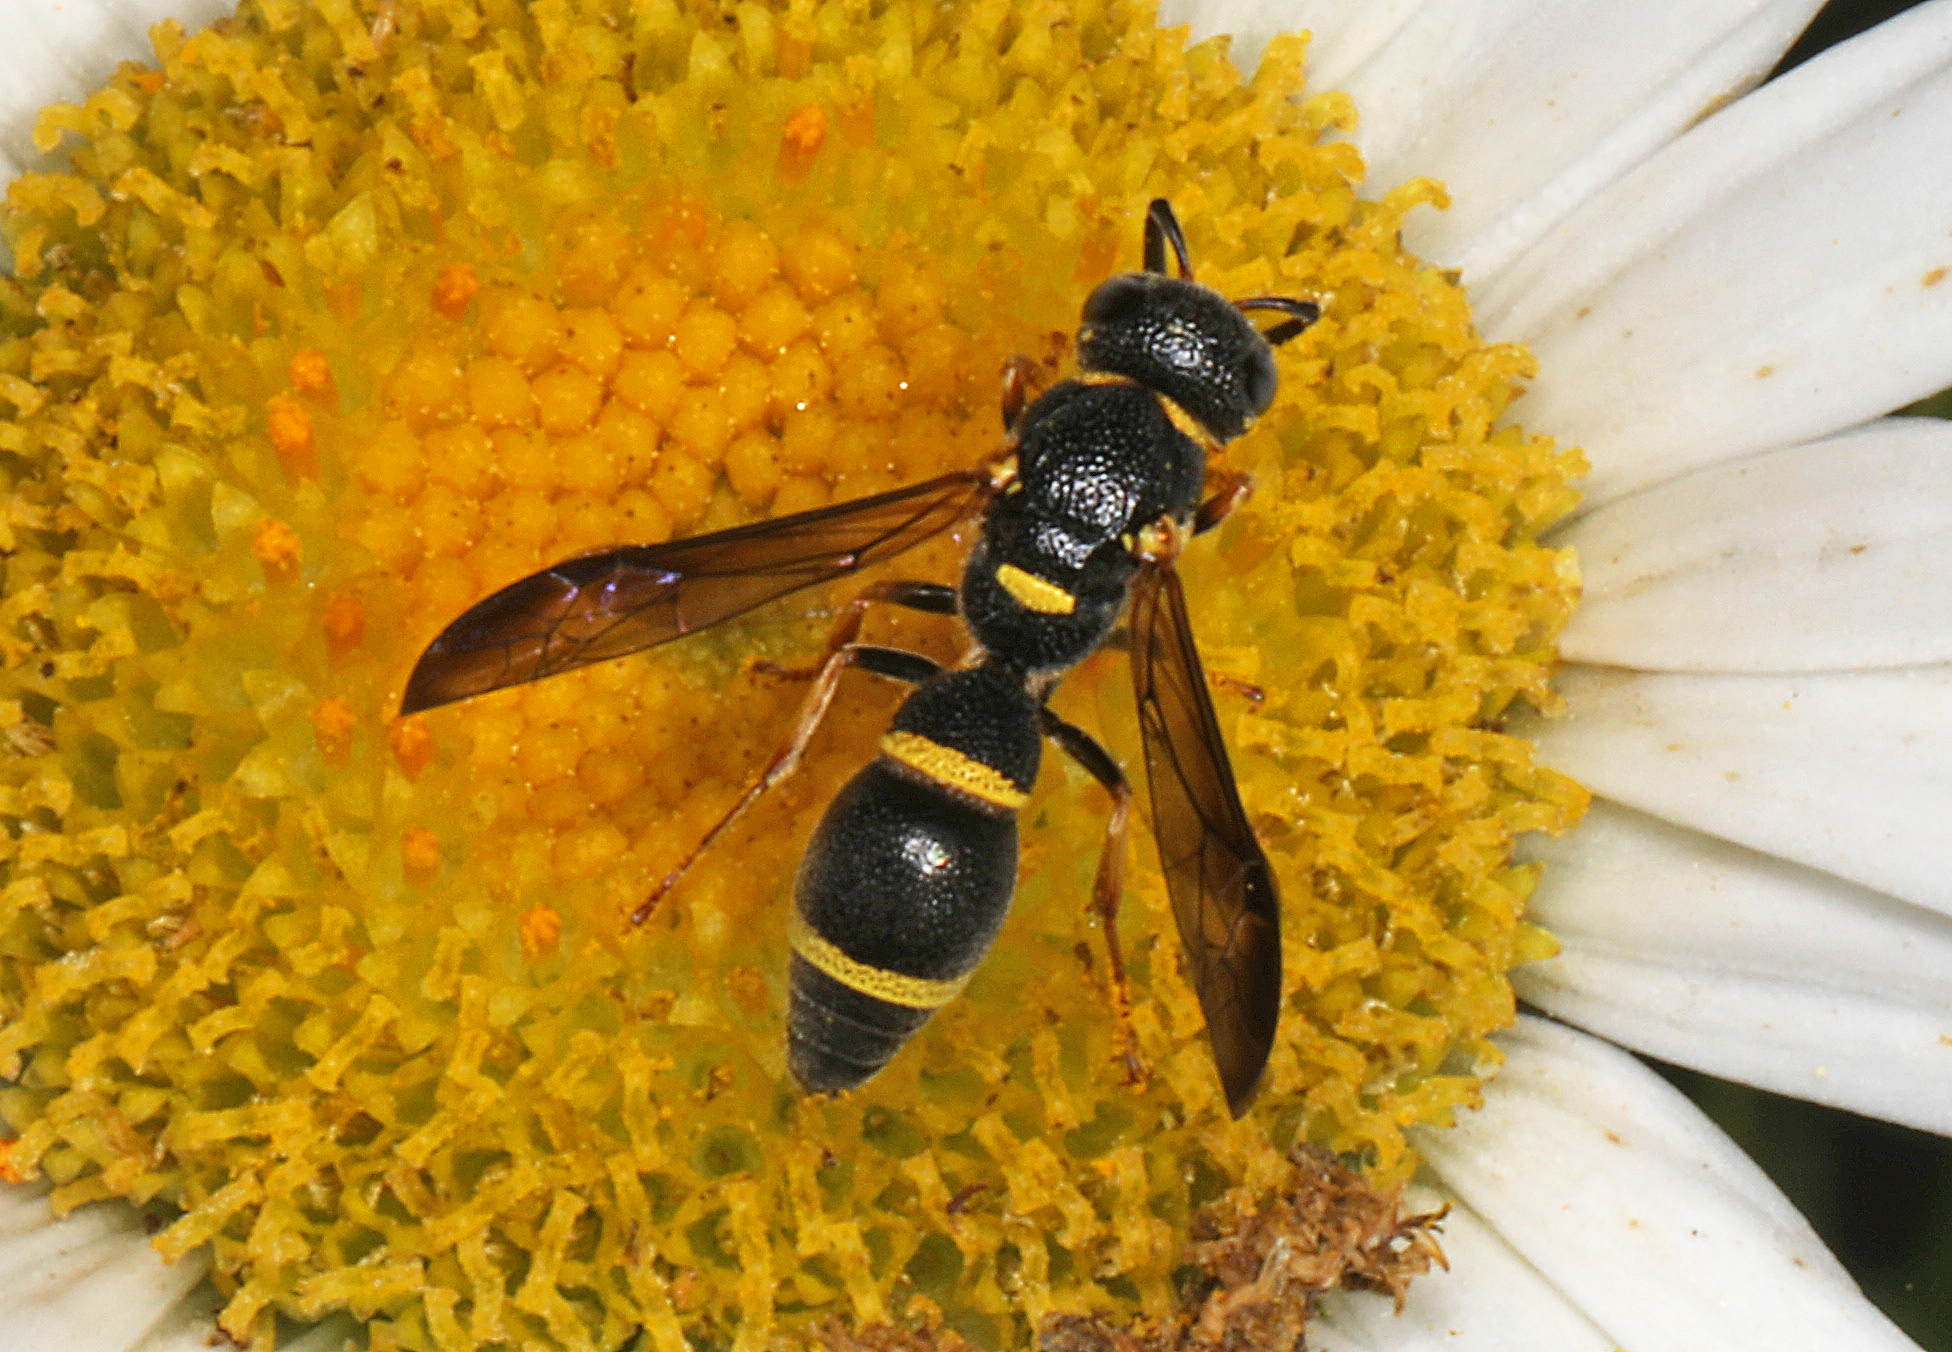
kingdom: Animalia
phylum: Arthropoda
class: Insecta
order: Hymenoptera
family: Eumenidae
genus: Parancistrocerus
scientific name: Parancistrocerus perennis
